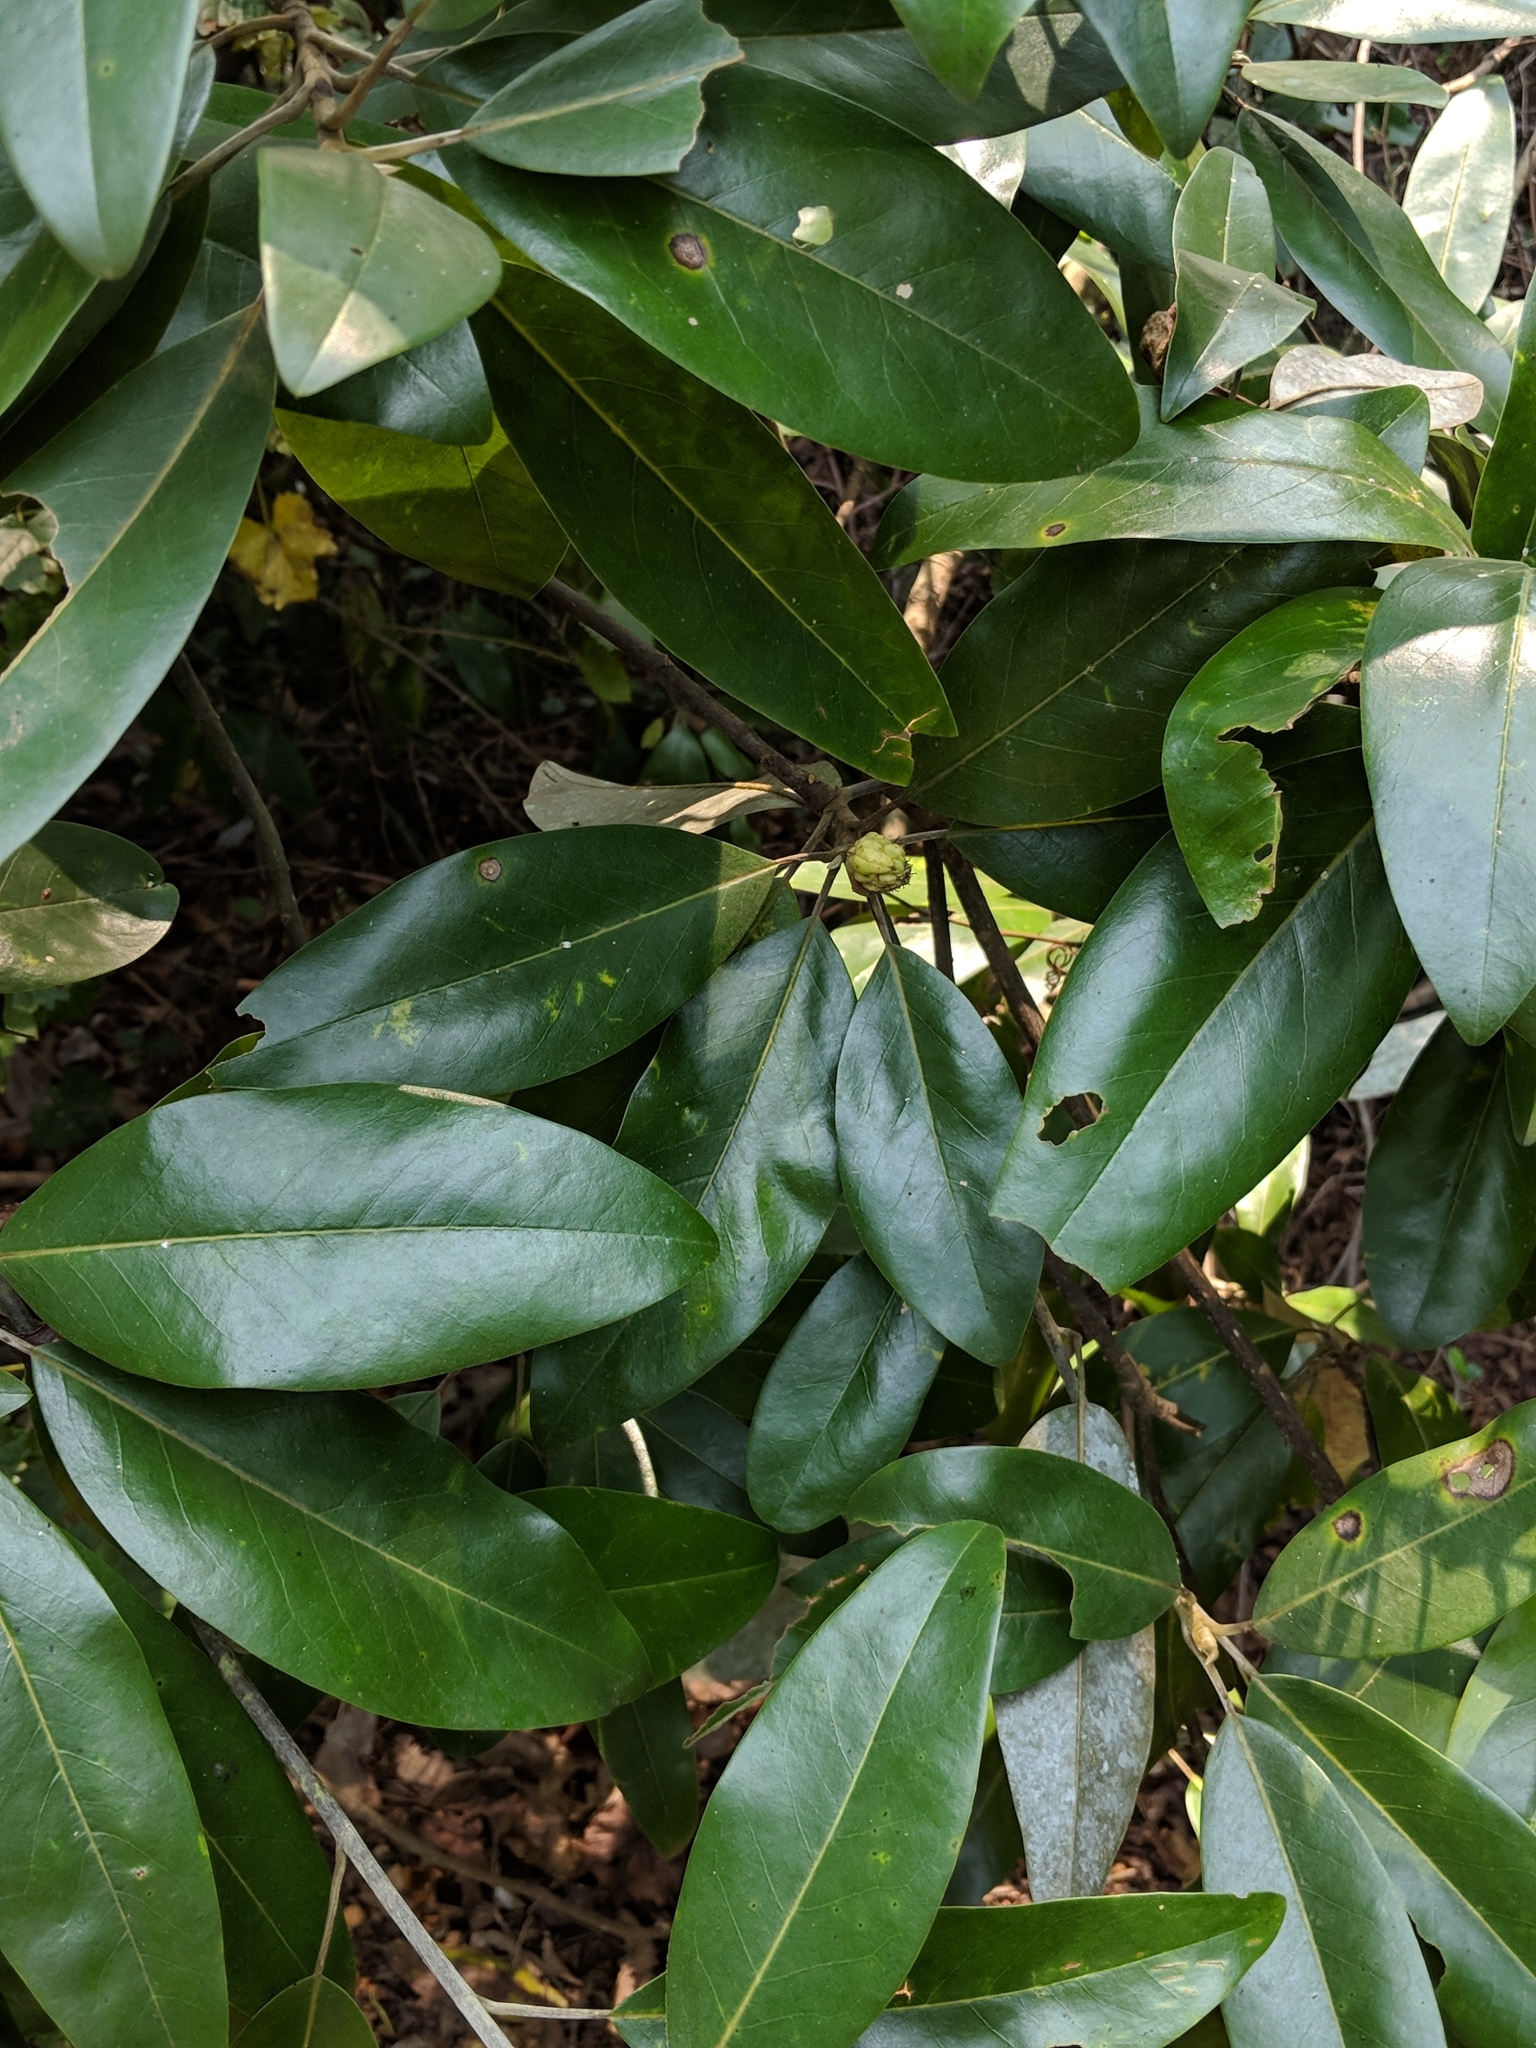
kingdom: Plantae
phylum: Tracheophyta
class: Magnoliopsida
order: Magnoliales
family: Magnoliaceae
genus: Magnolia
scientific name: Magnolia virginiana
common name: Swamp bay
